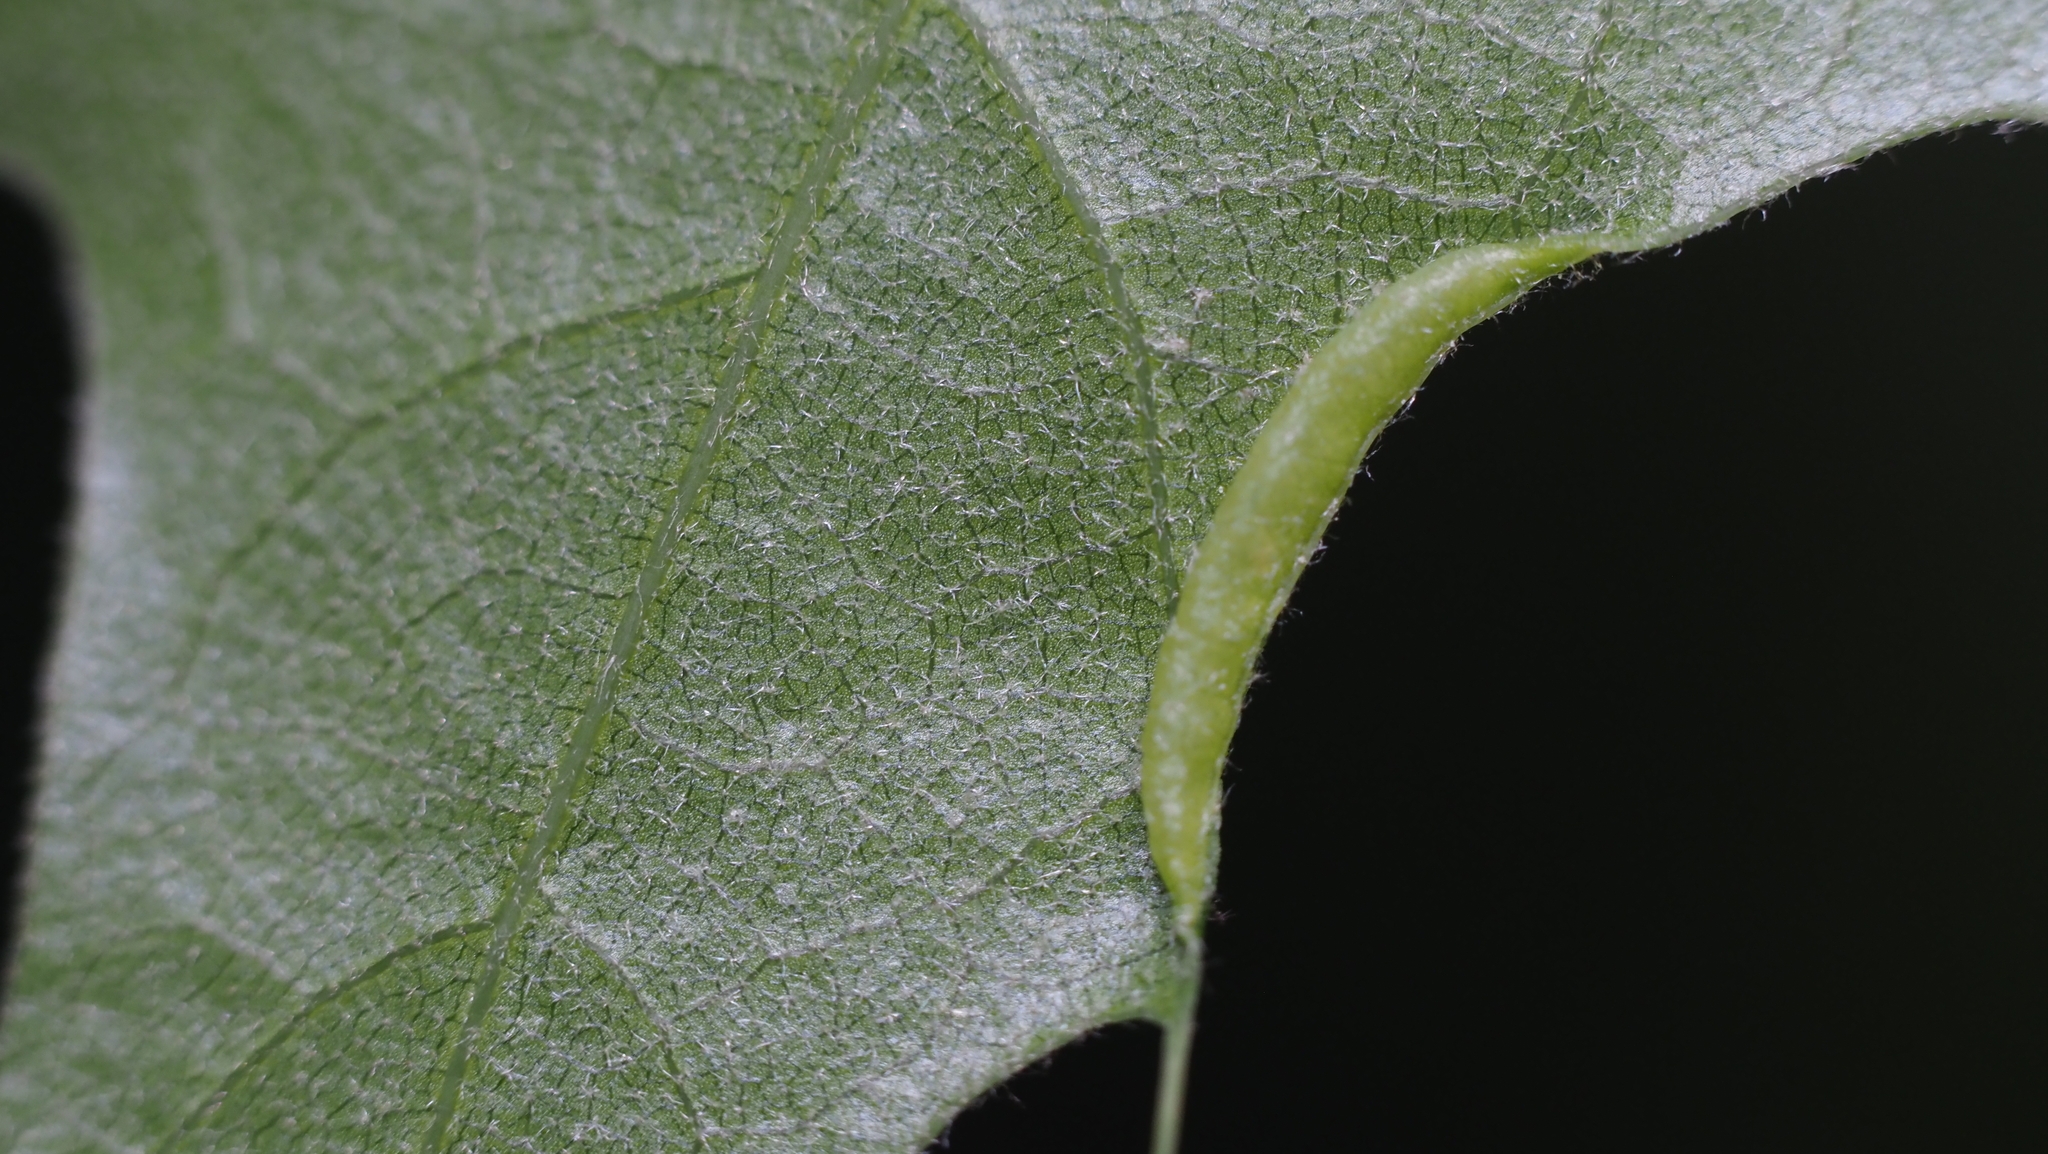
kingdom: Animalia
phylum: Arthropoda
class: Insecta
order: Diptera
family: Cecidomyiidae
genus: Macrodiplosis
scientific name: Macrodiplosis erubescens
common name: Marginal leaf fold gall midge
